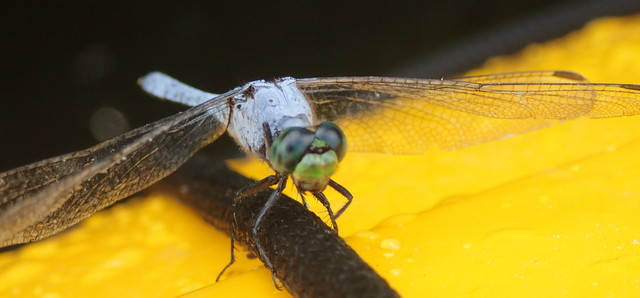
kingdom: Animalia
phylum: Arthropoda
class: Insecta
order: Odonata
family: Libellulidae
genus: Erythemis
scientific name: Erythemis simplicicollis
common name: Eastern pondhawk
